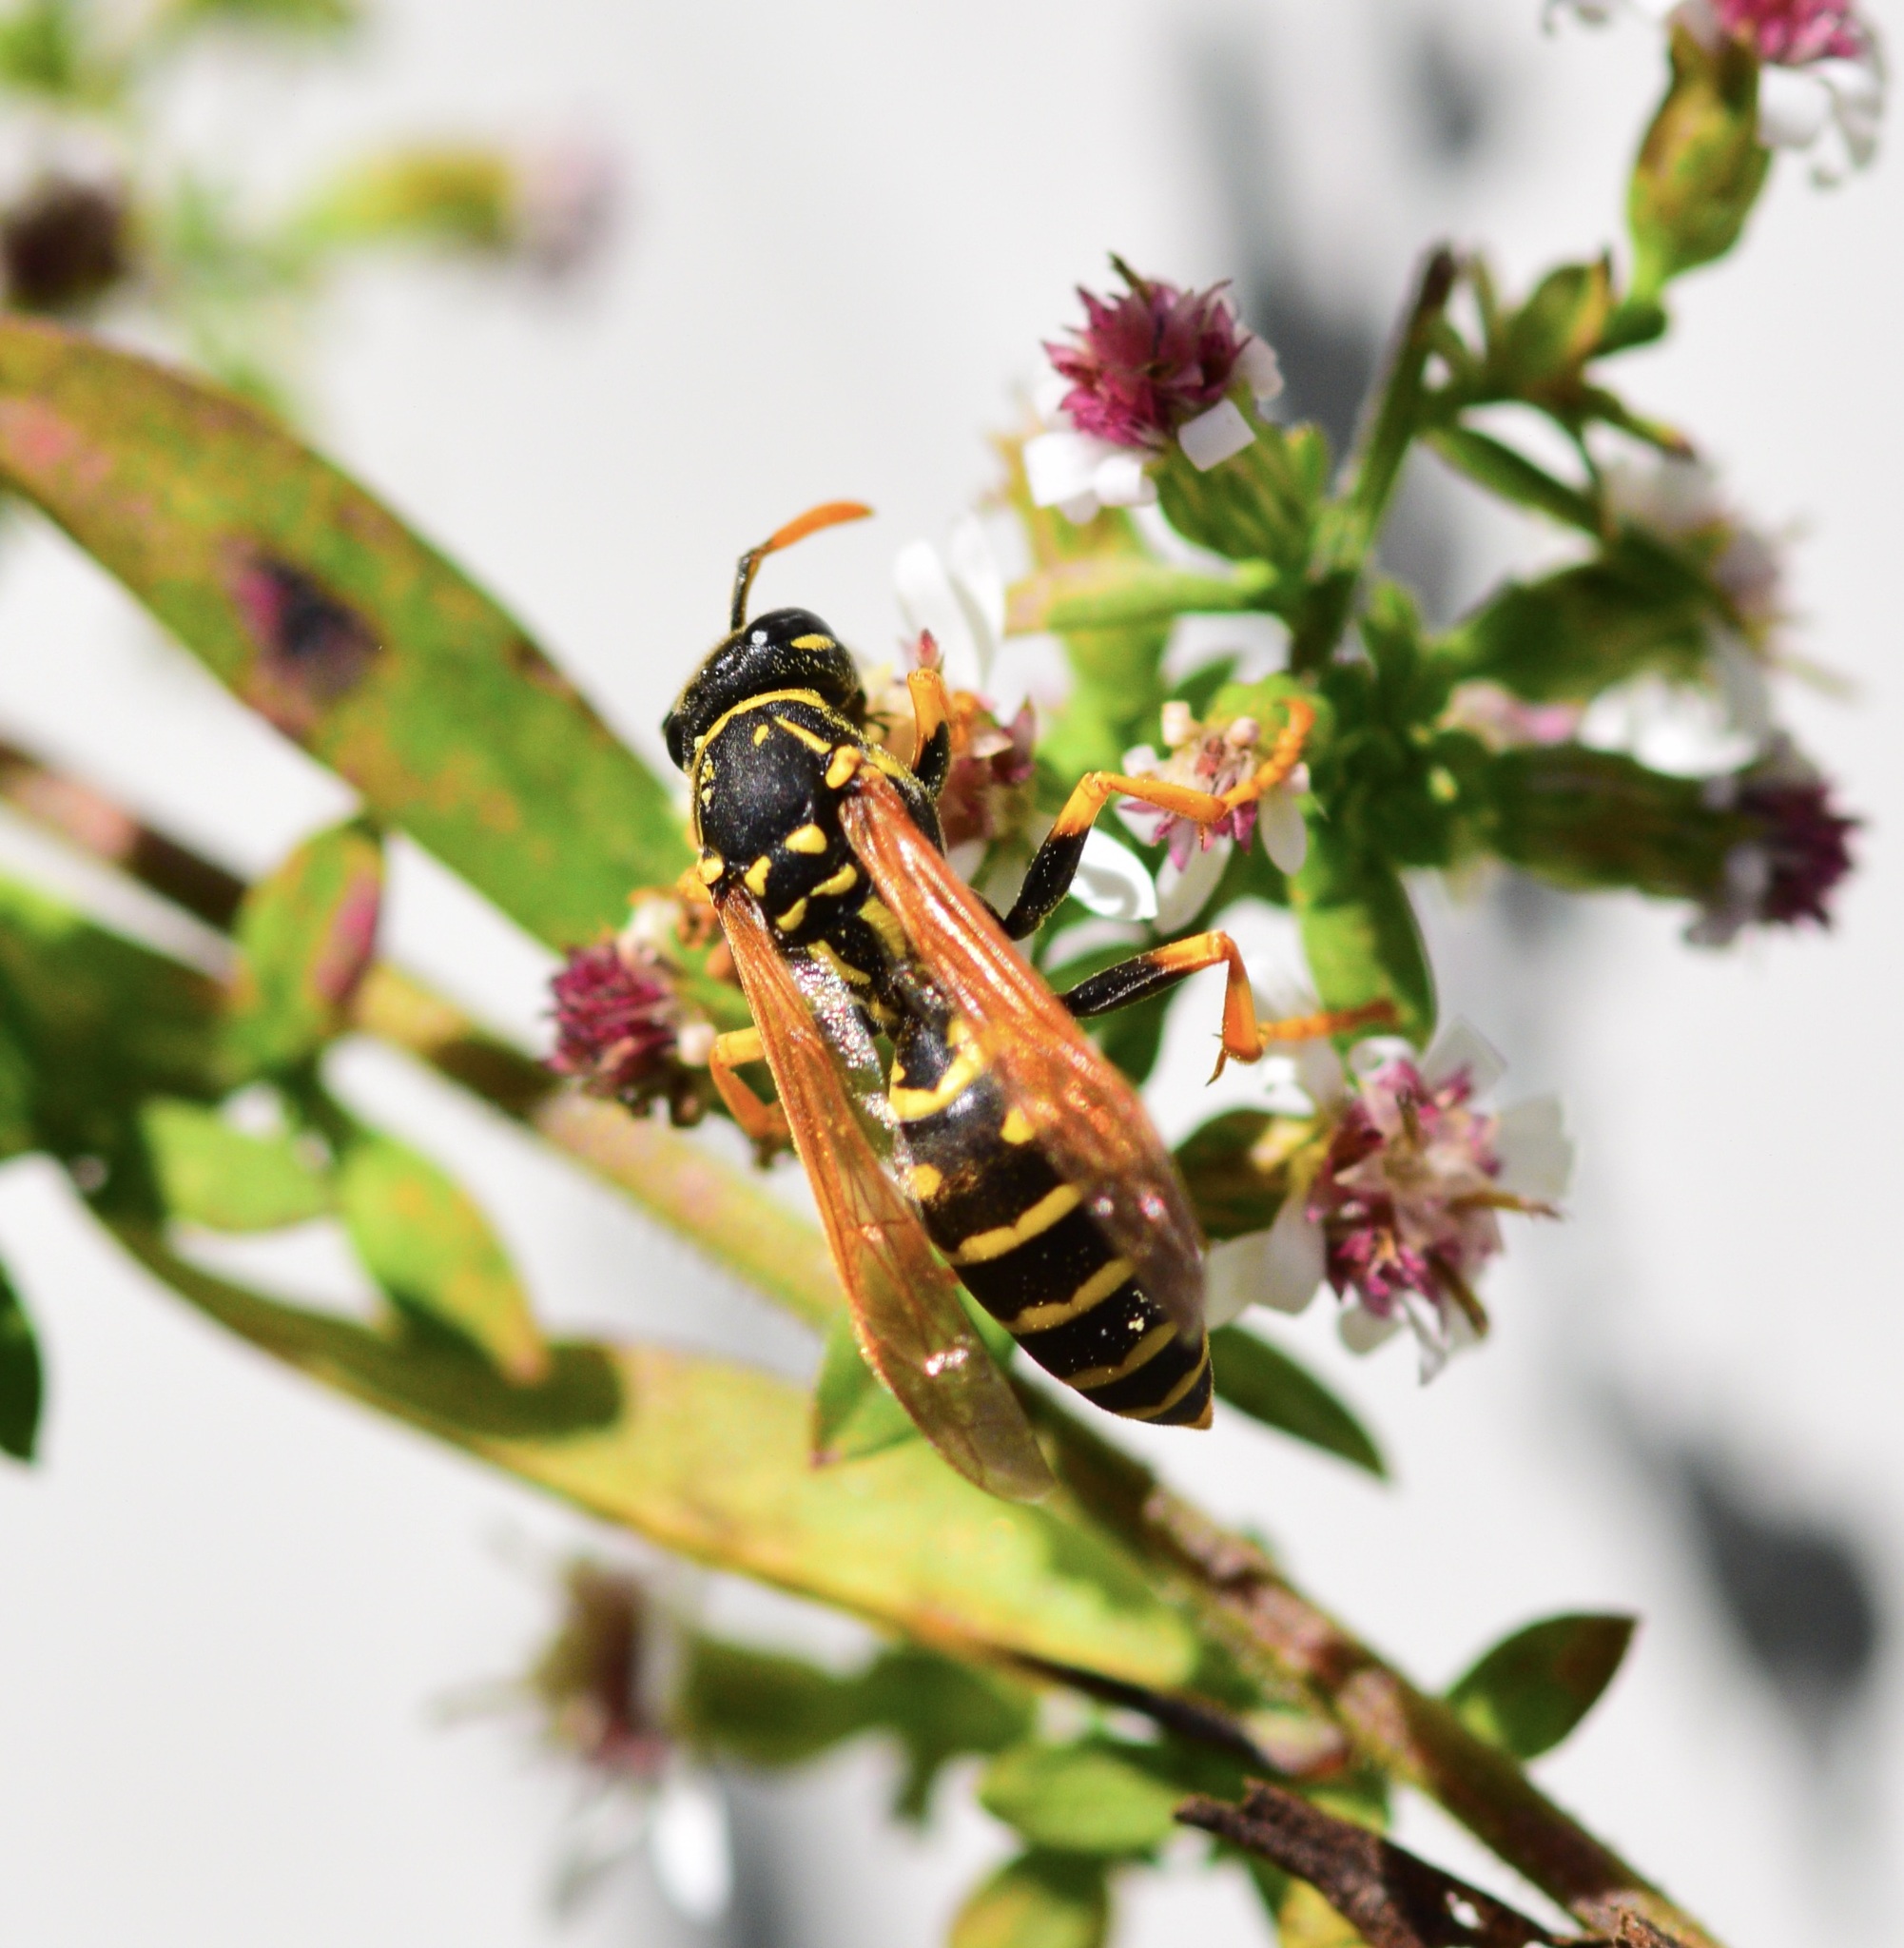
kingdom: Animalia
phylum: Arthropoda
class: Insecta
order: Hymenoptera
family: Eumenidae
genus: Polistes
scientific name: Polistes dominula
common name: Paper wasp
